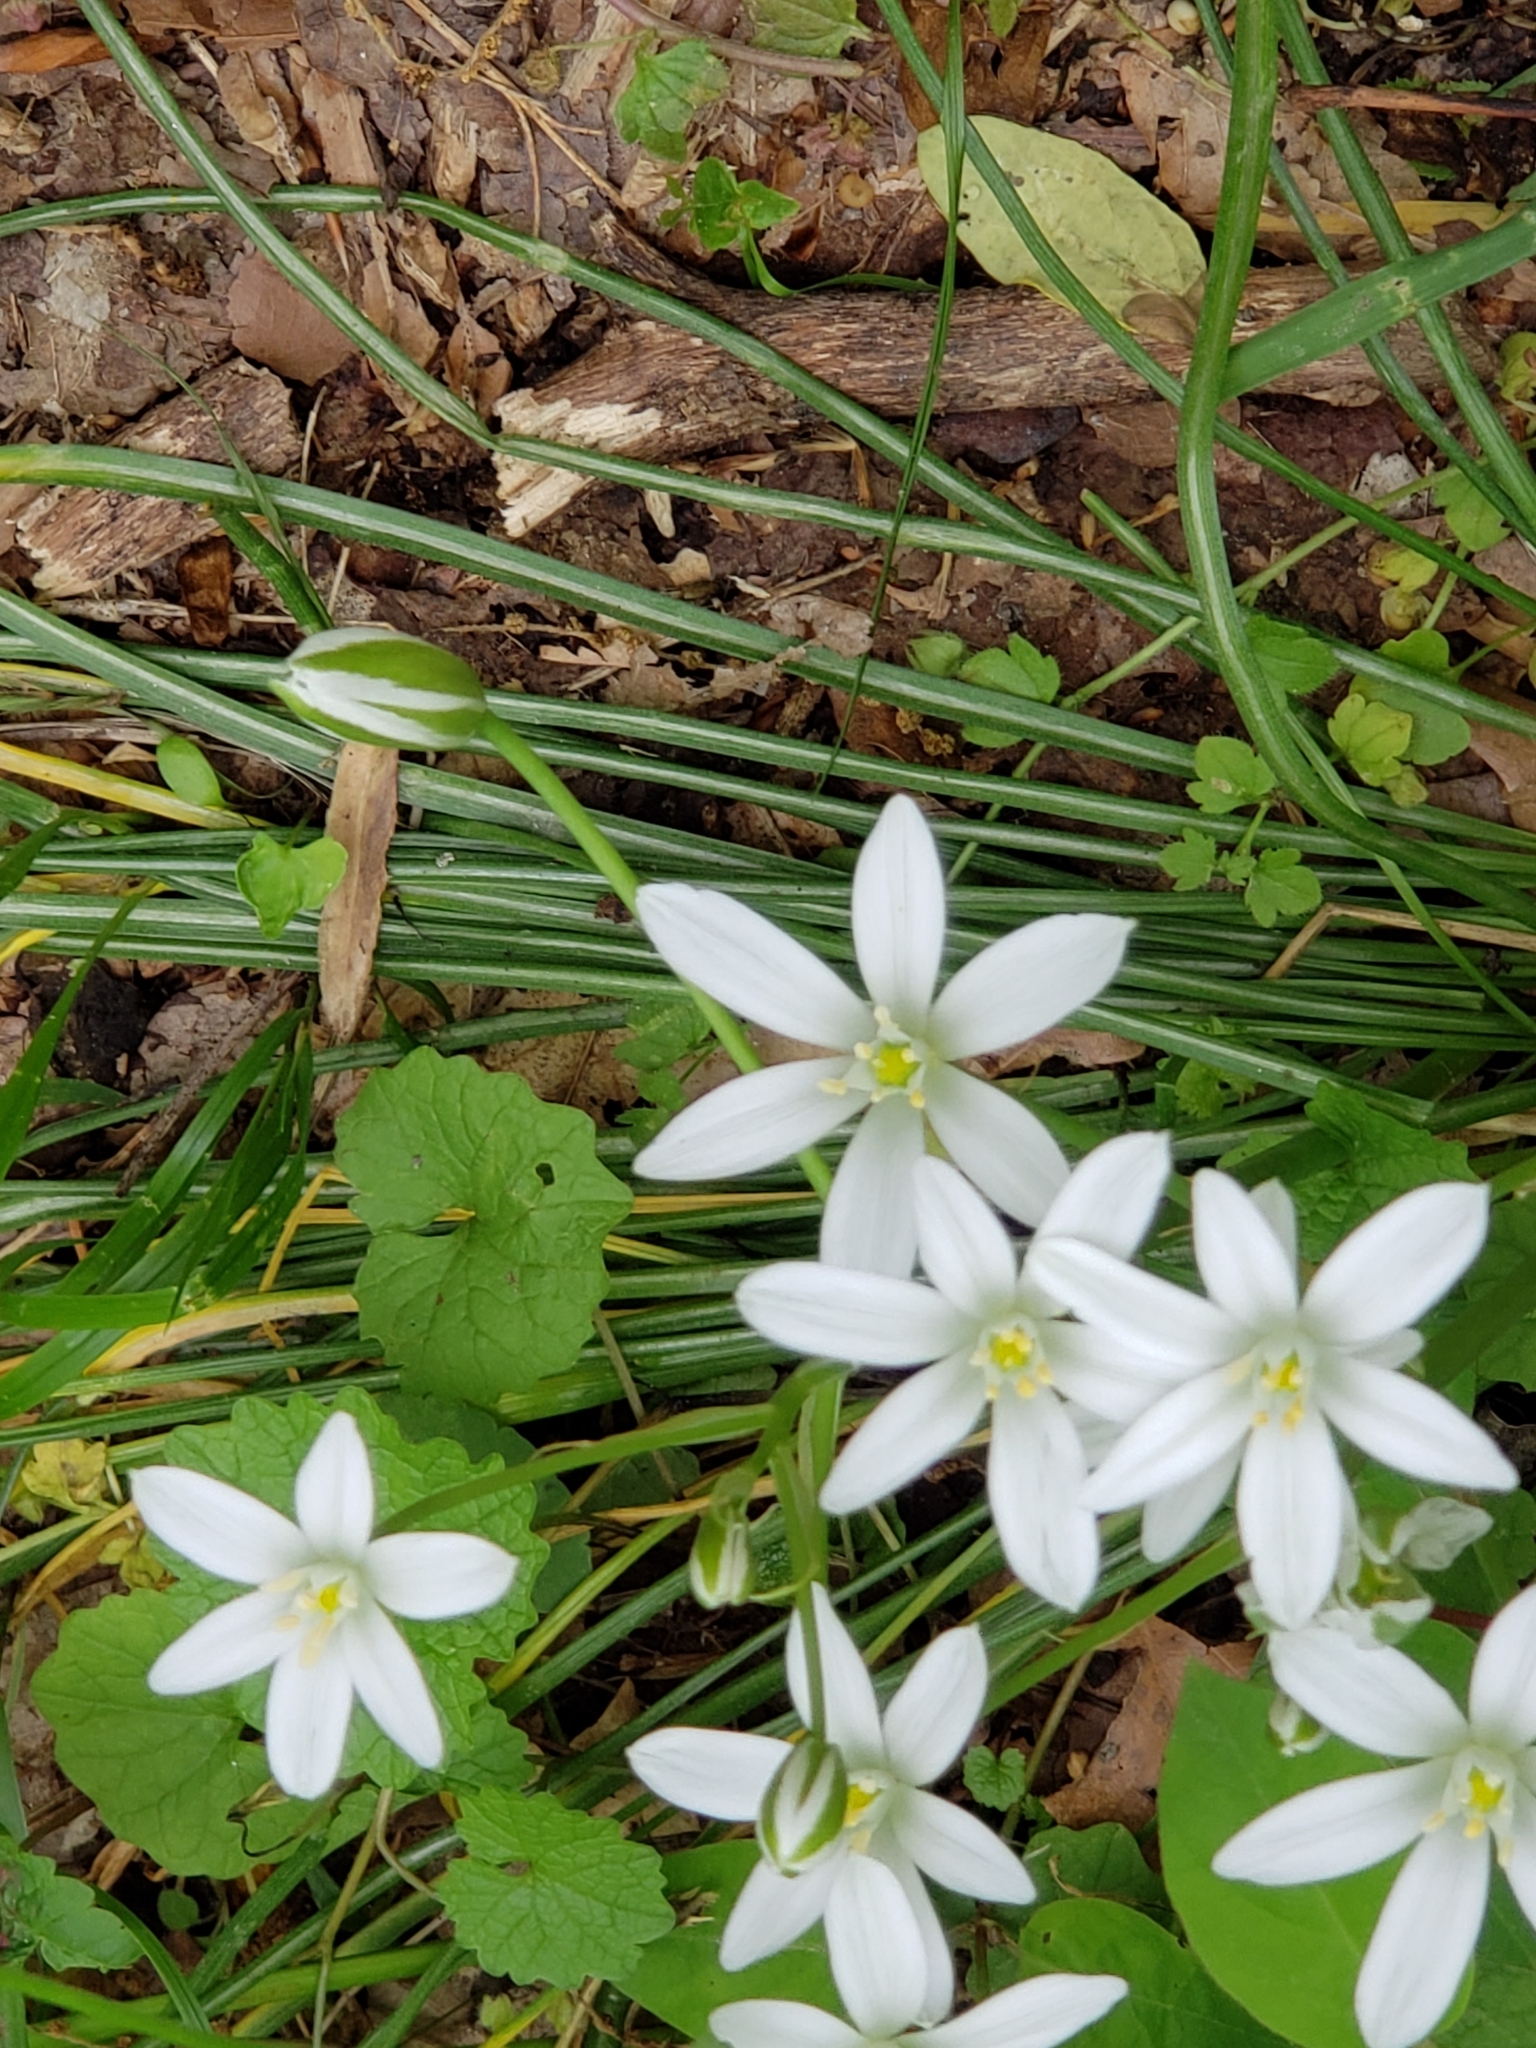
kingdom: Plantae
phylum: Tracheophyta
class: Liliopsida
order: Asparagales
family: Asparagaceae
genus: Ornithogalum
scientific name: Ornithogalum umbellatum
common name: Garden star-of-bethlehem
